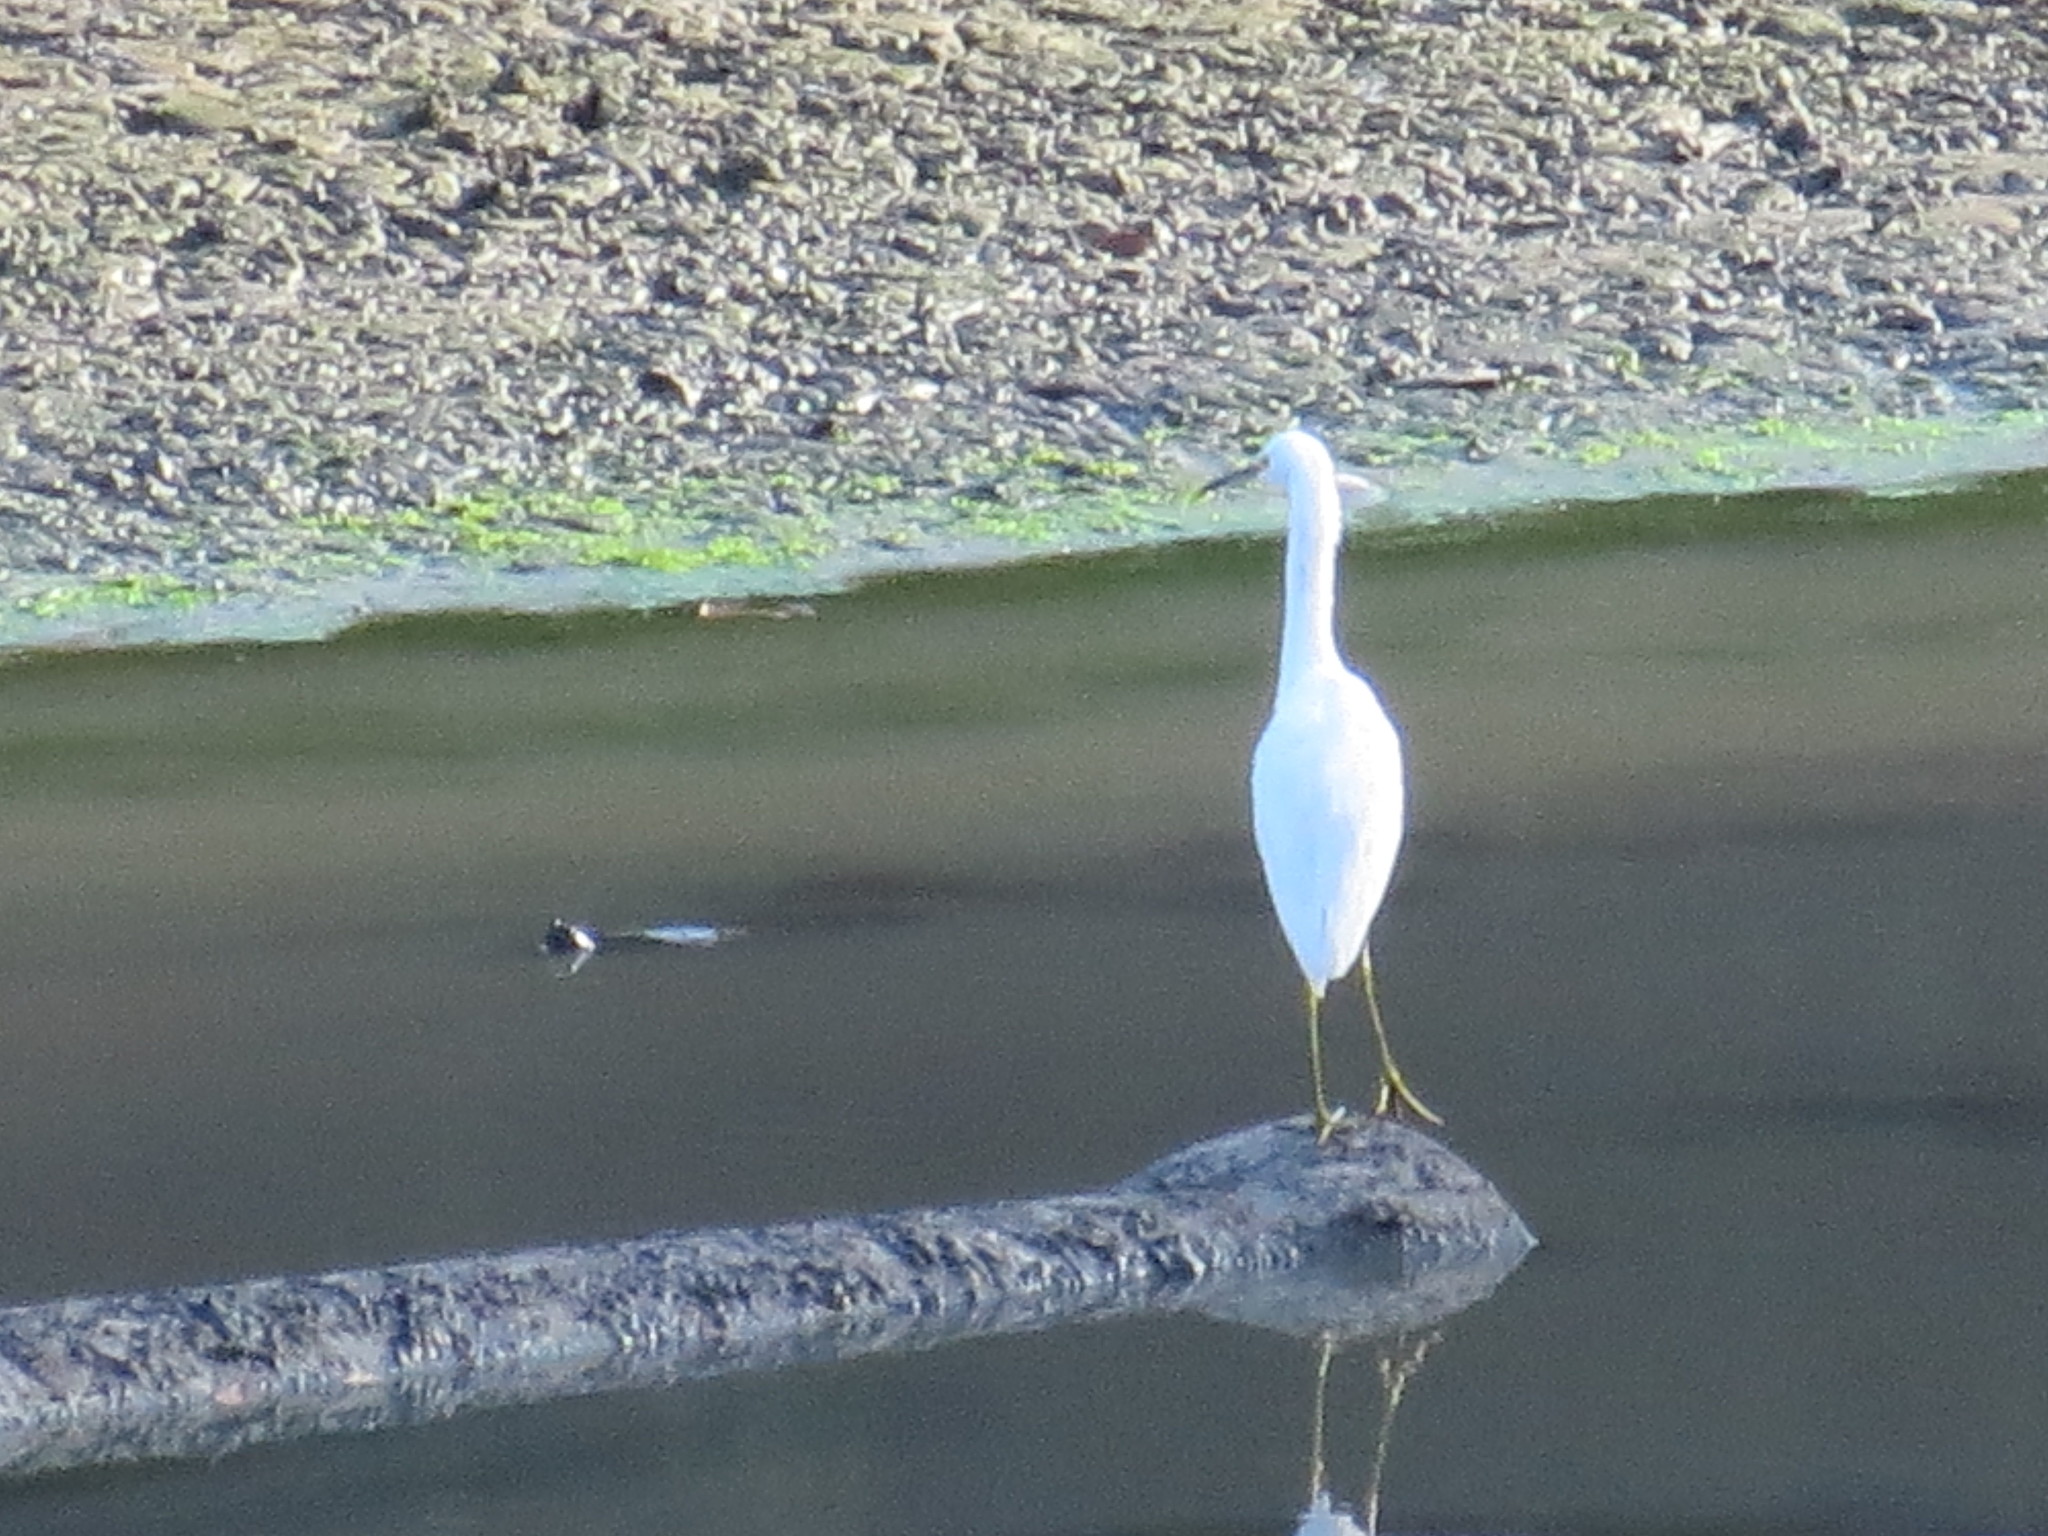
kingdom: Animalia
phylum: Chordata
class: Aves
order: Pelecaniformes
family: Ardeidae
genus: Egretta
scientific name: Egretta thula
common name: Snowy egret
